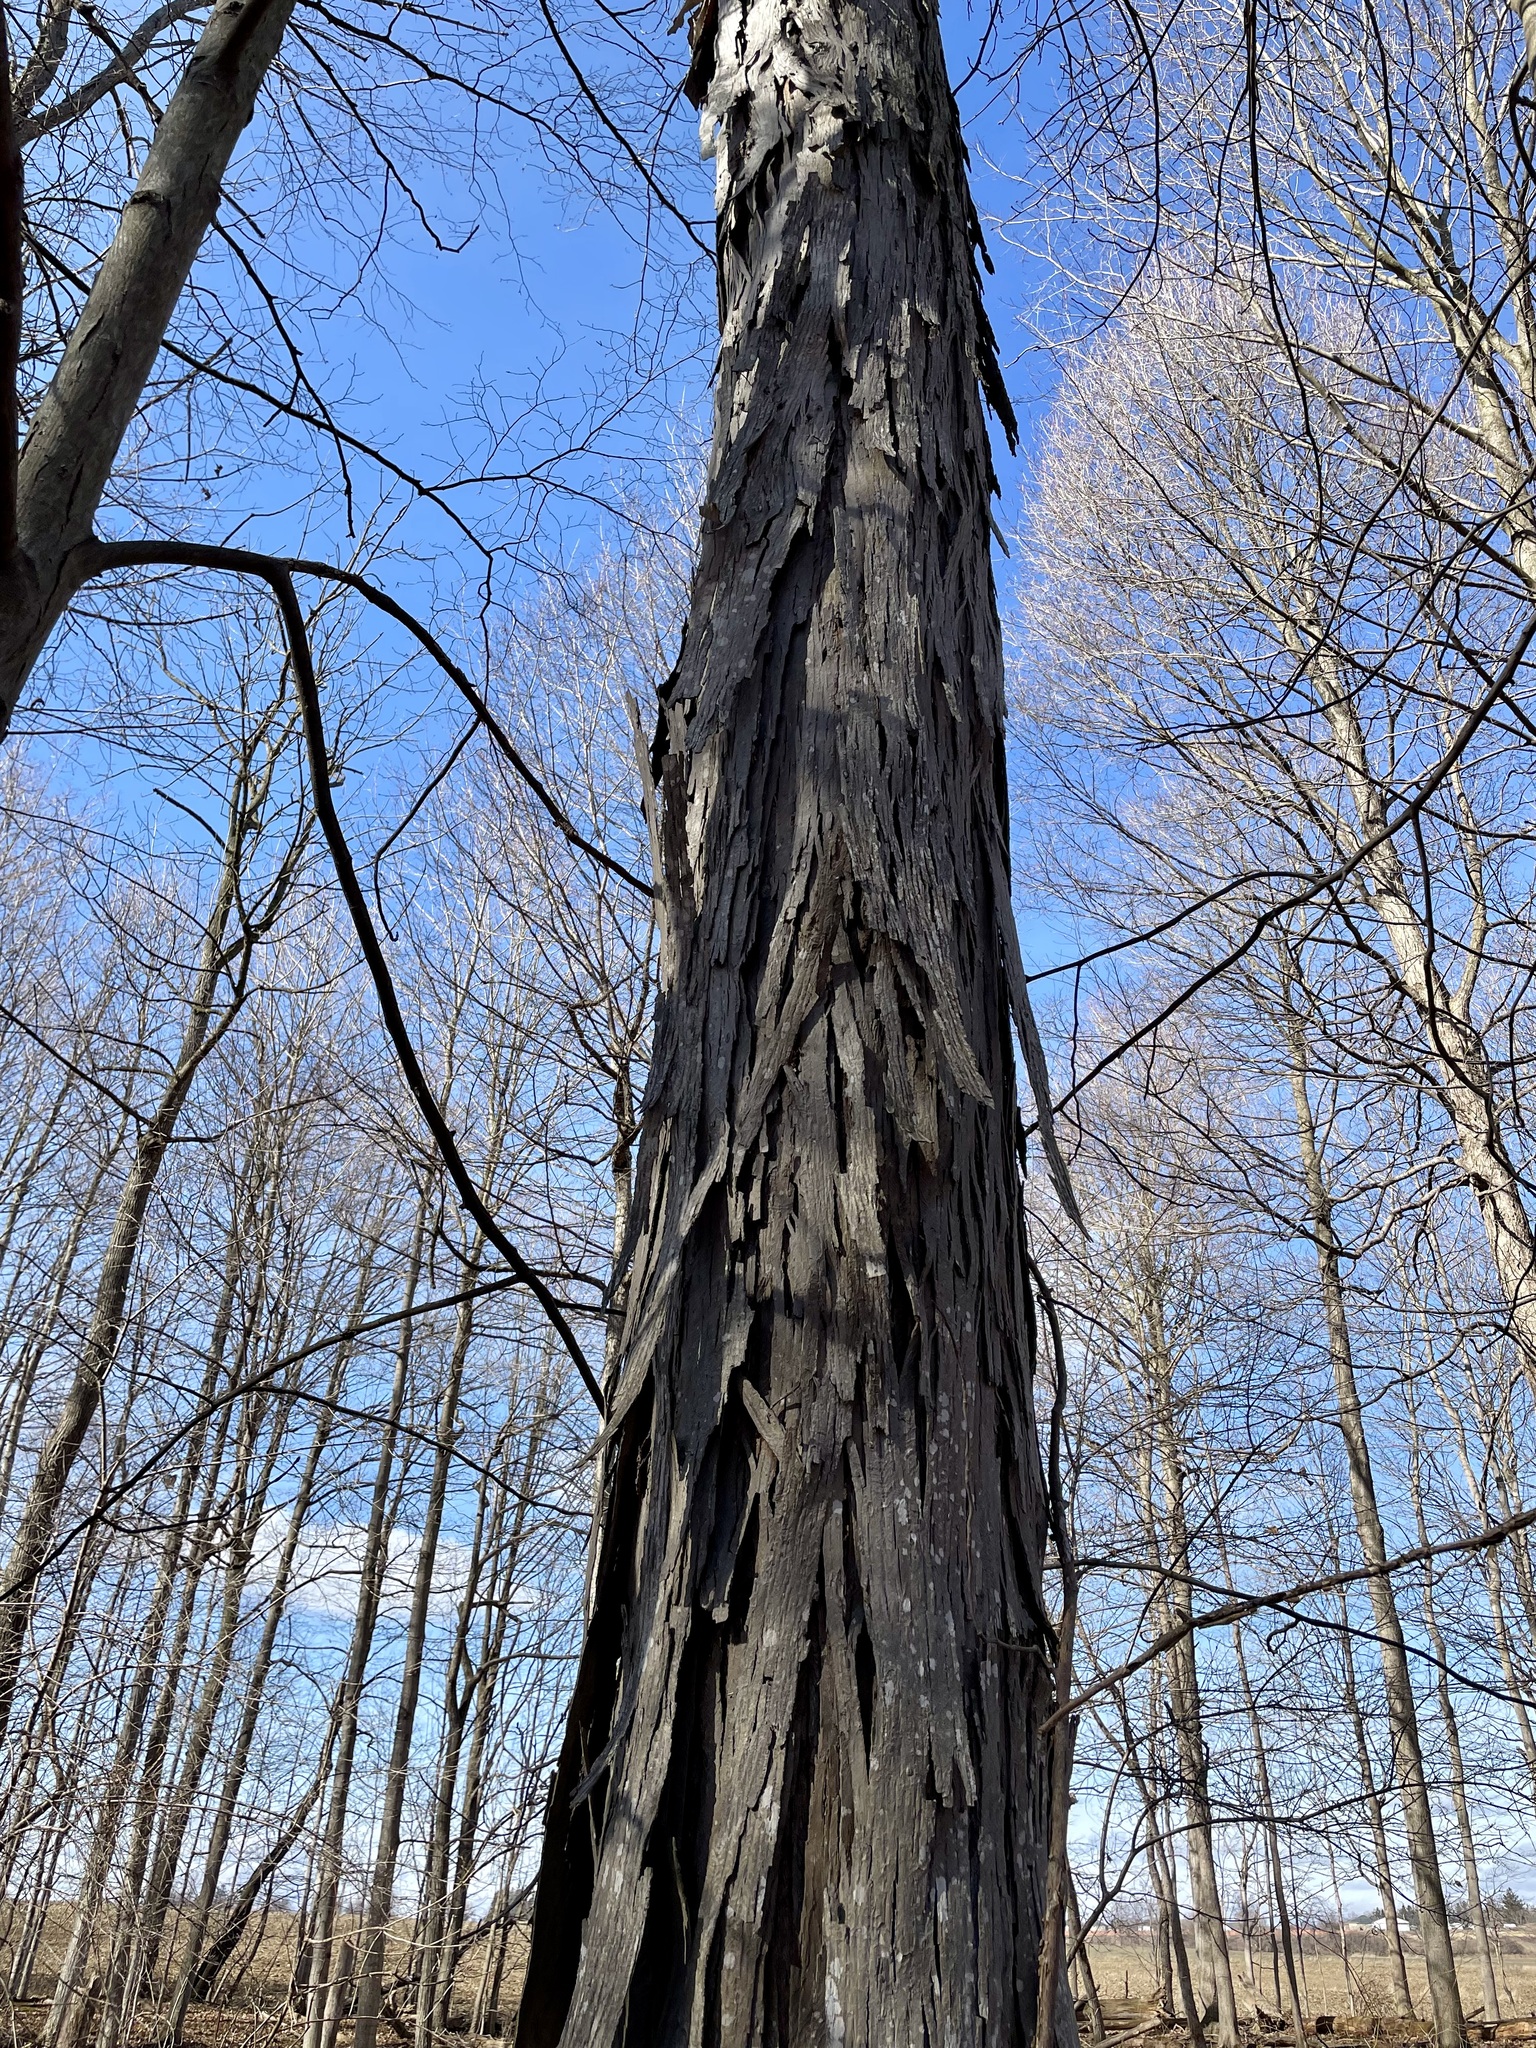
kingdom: Plantae
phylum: Tracheophyta
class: Magnoliopsida
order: Fagales
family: Juglandaceae
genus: Carya
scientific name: Carya ovata
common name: Shagbark hickory
